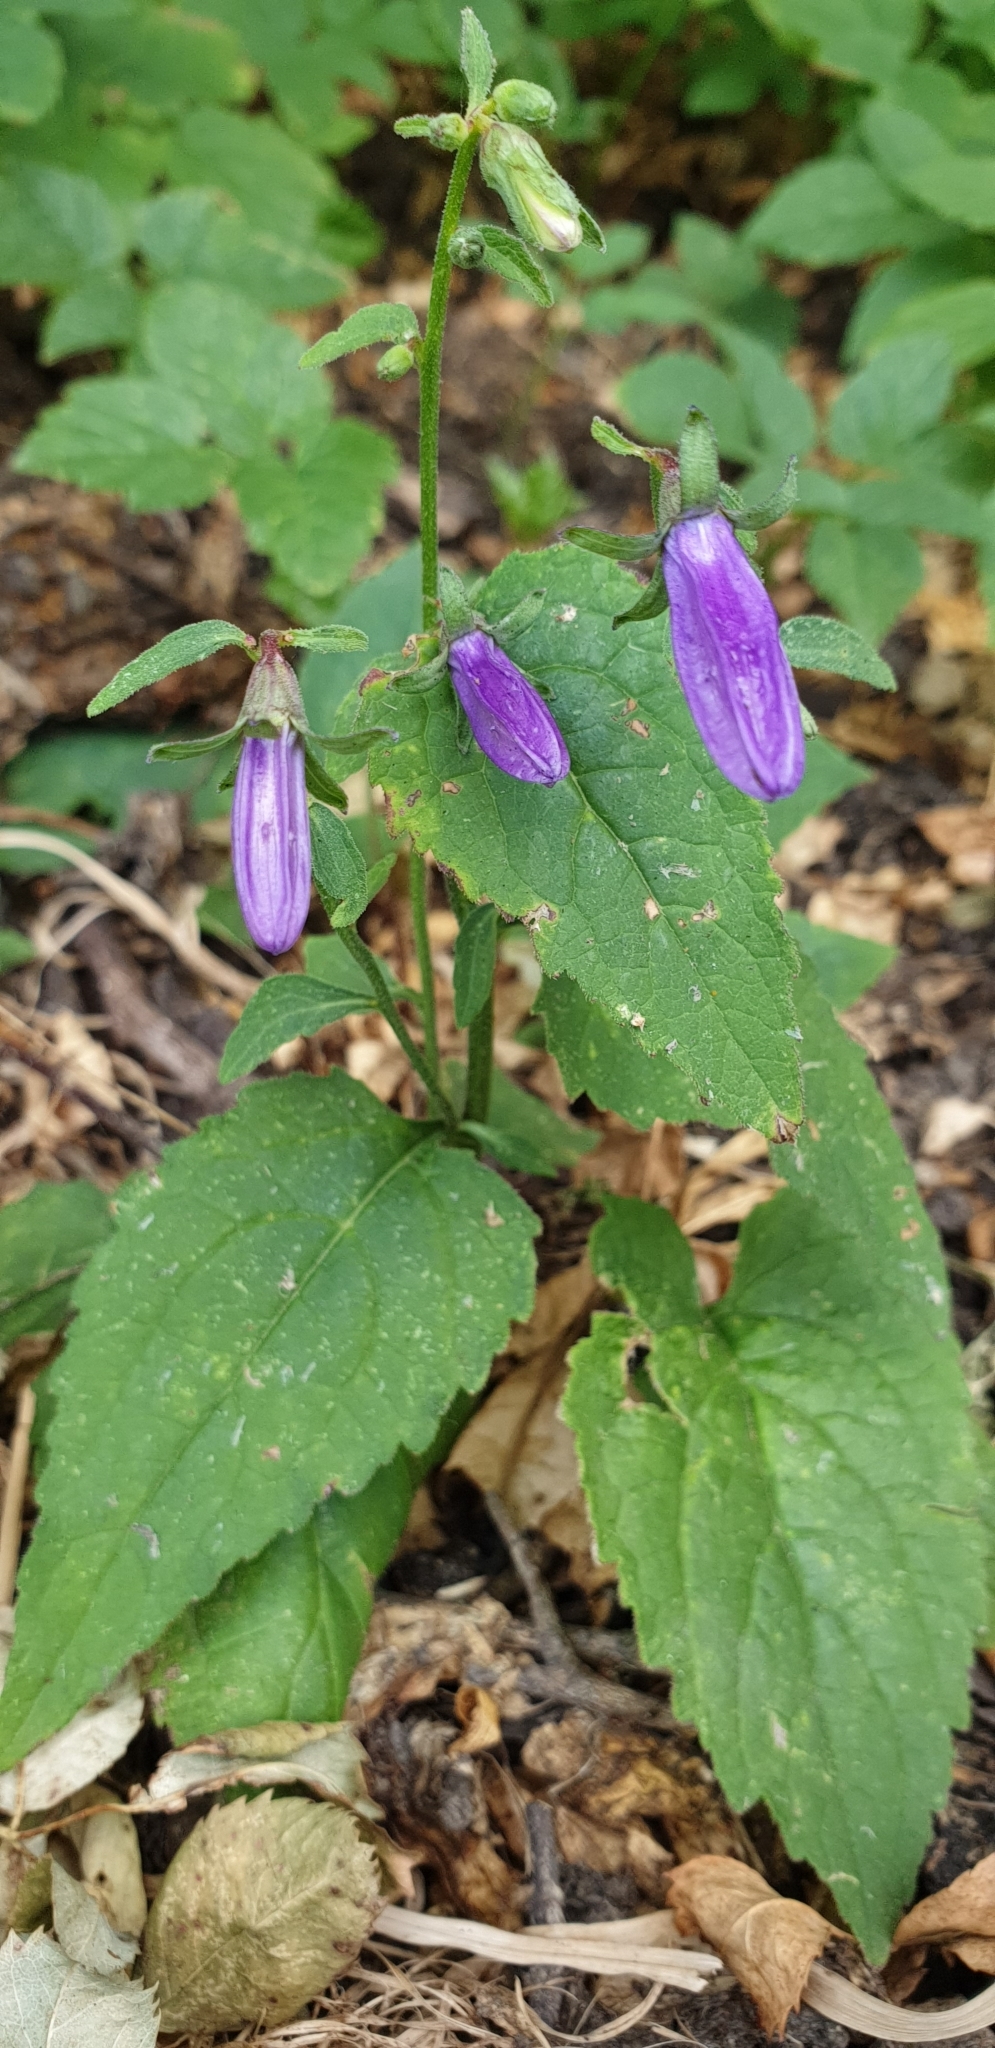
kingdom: Plantae
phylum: Tracheophyta
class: Magnoliopsida
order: Asterales
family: Campanulaceae
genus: Campanula
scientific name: Campanula rapunculoides
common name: Creeping bellflower
